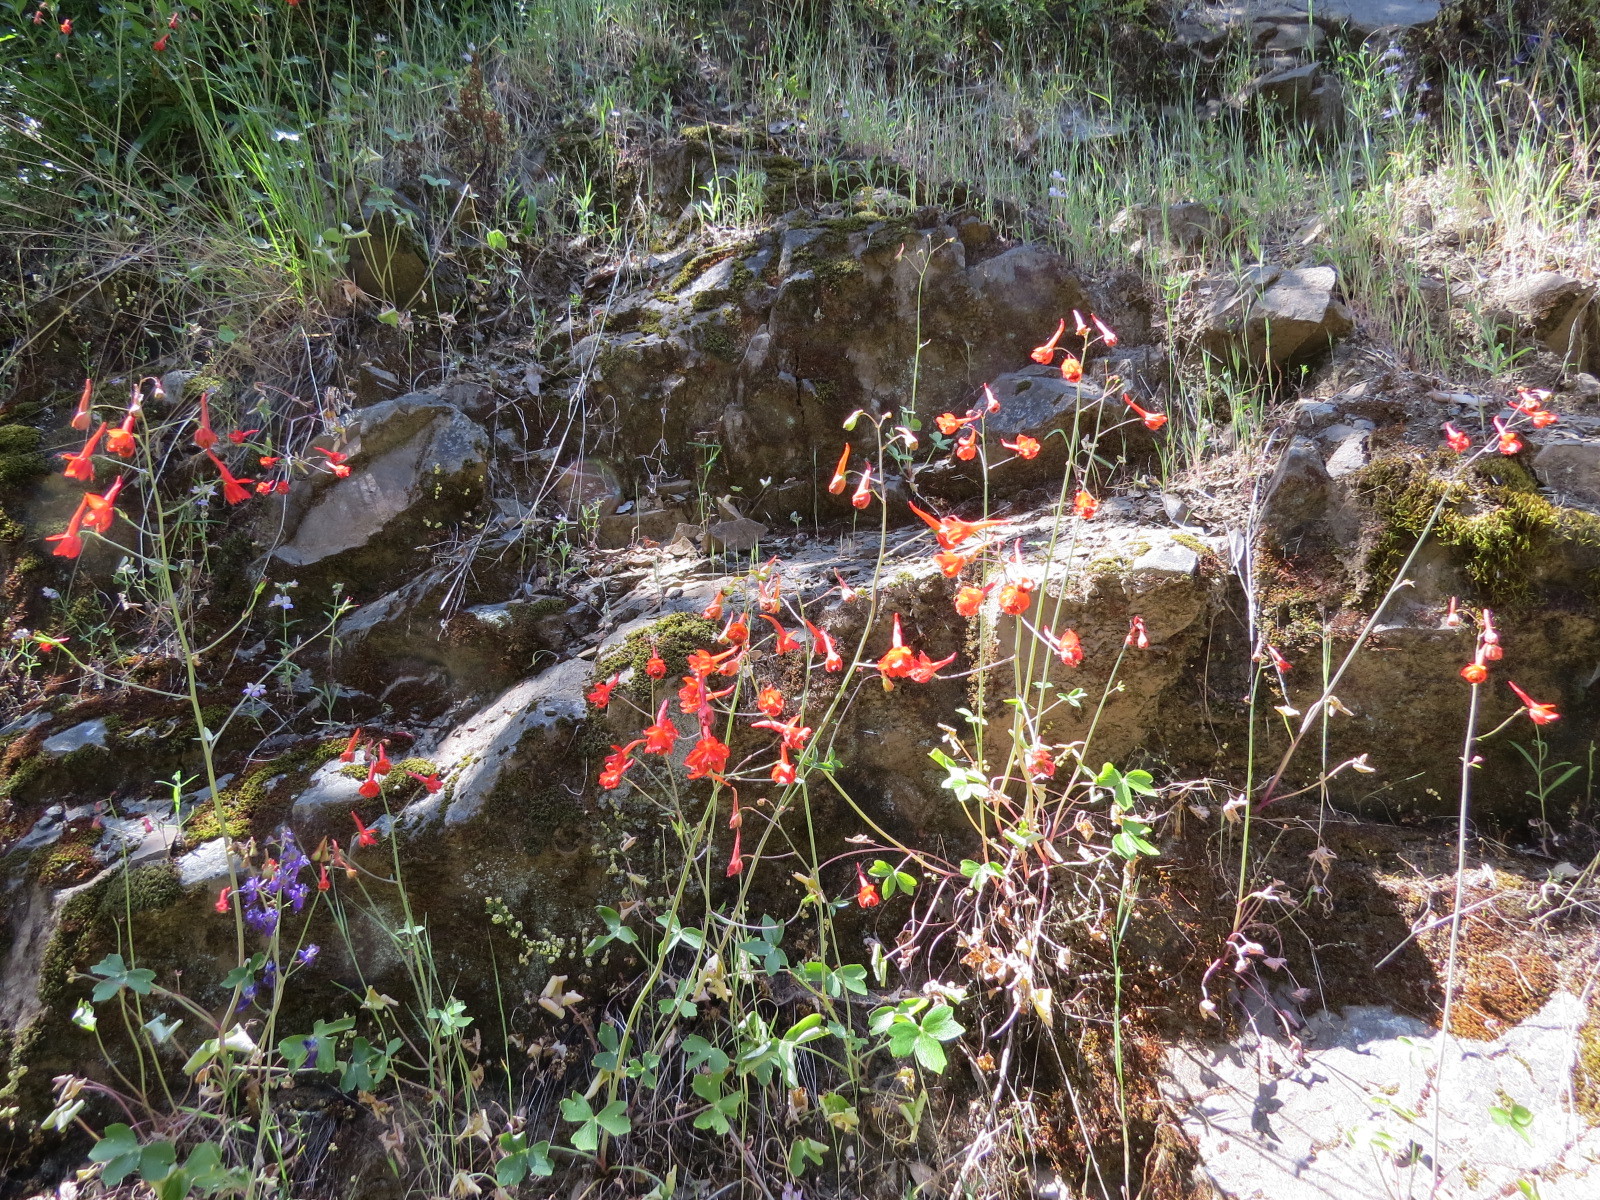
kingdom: Plantae
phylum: Tracheophyta
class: Magnoliopsida
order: Ranunculales
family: Ranunculaceae
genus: Delphinium
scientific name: Delphinium nudicaule
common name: Red larkspur
